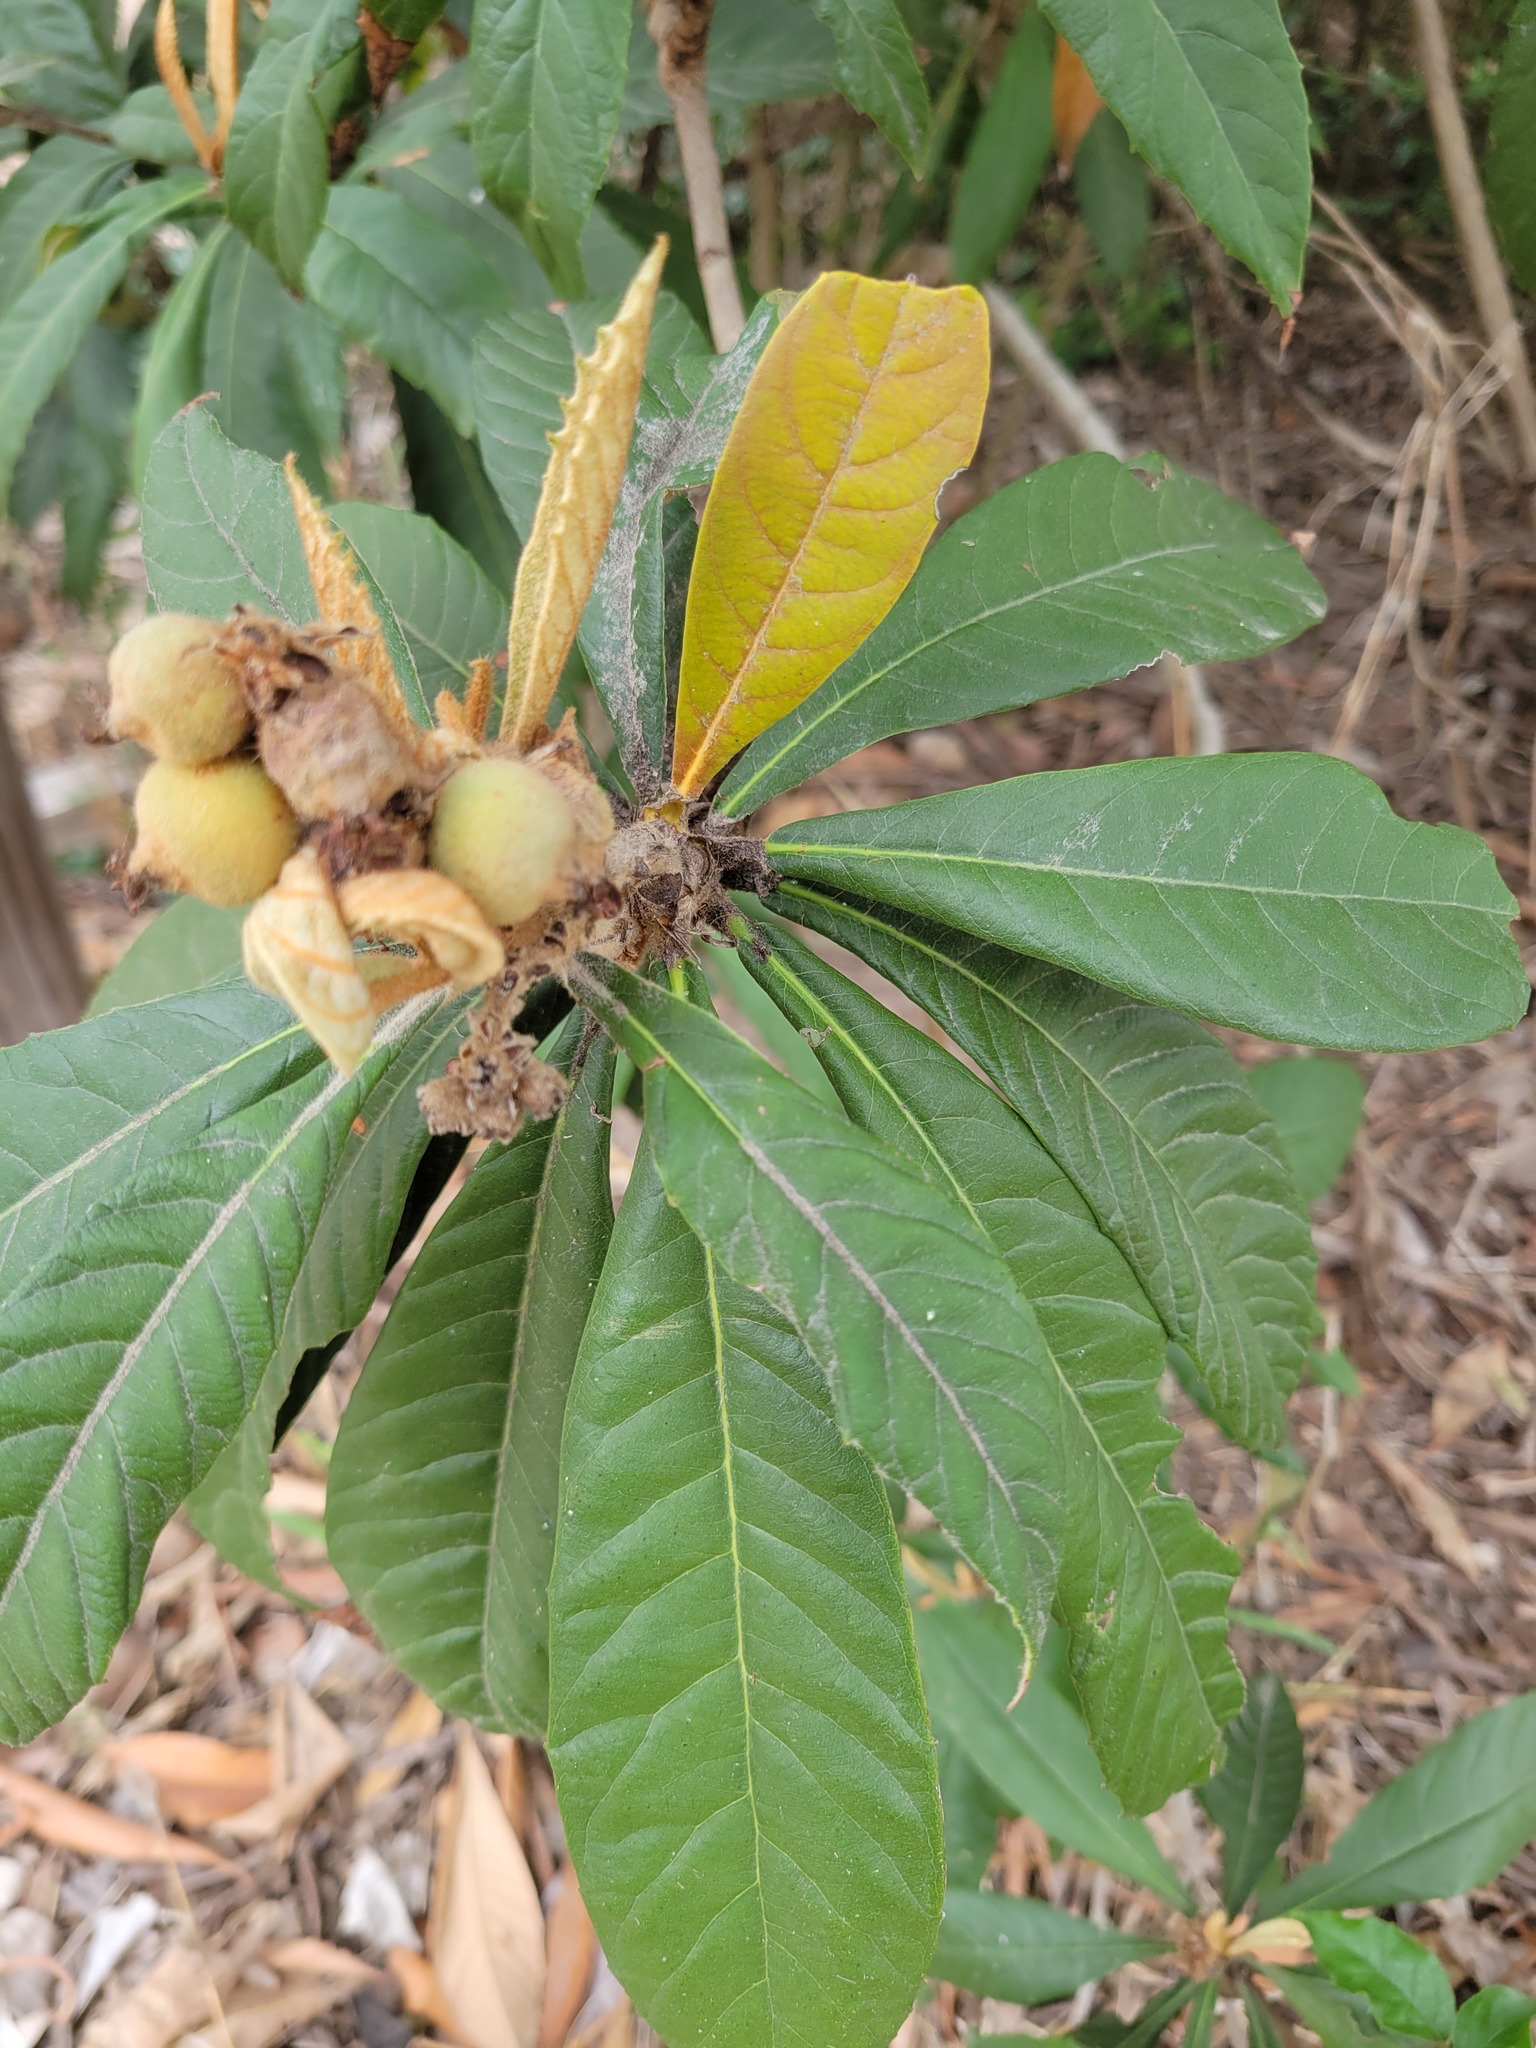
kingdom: Plantae
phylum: Tracheophyta
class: Magnoliopsida
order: Rosales
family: Rosaceae
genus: Rhaphiolepis
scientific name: Rhaphiolepis bibas
